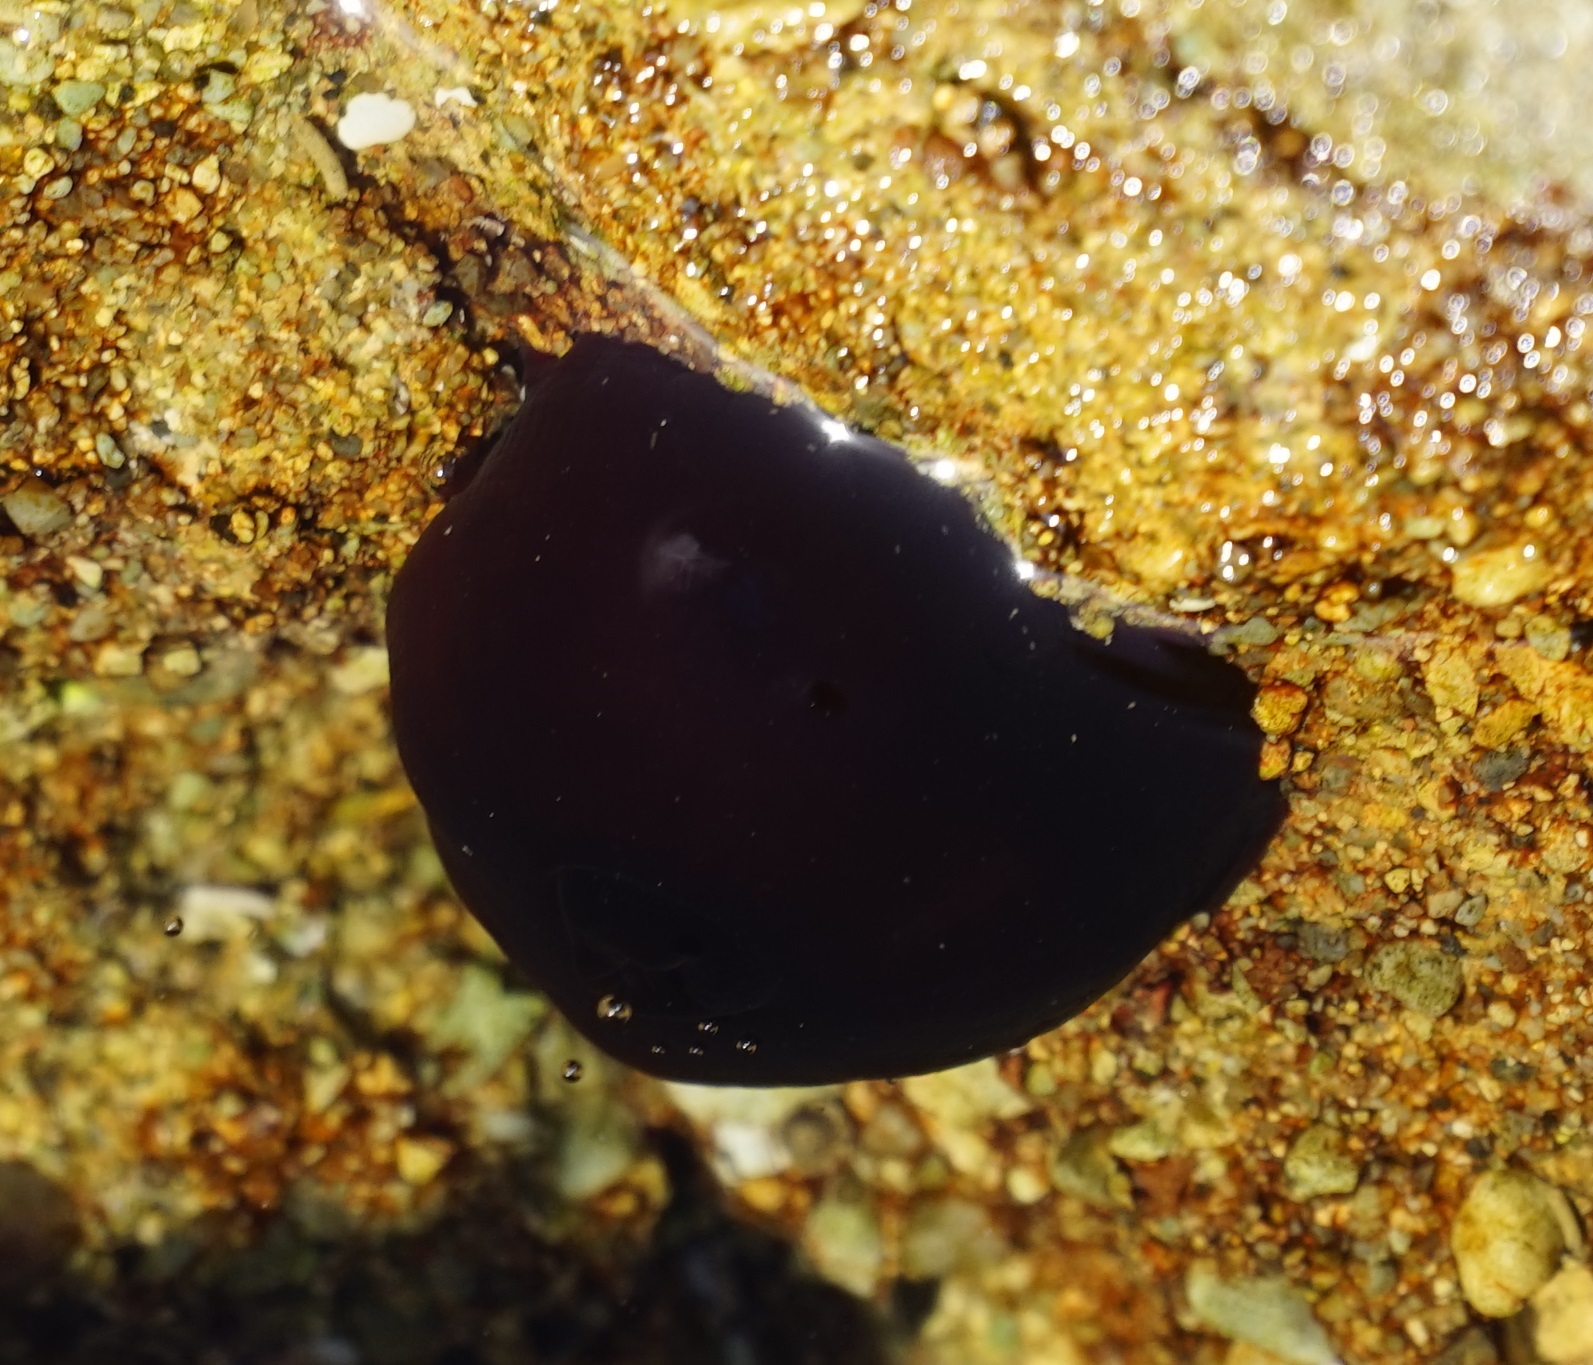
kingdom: Animalia
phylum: Cnidaria
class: Anthozoa
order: Actiniaria
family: Actiniidae
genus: Actinia
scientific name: Actinia tenebrosa
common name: Waratah anemone
